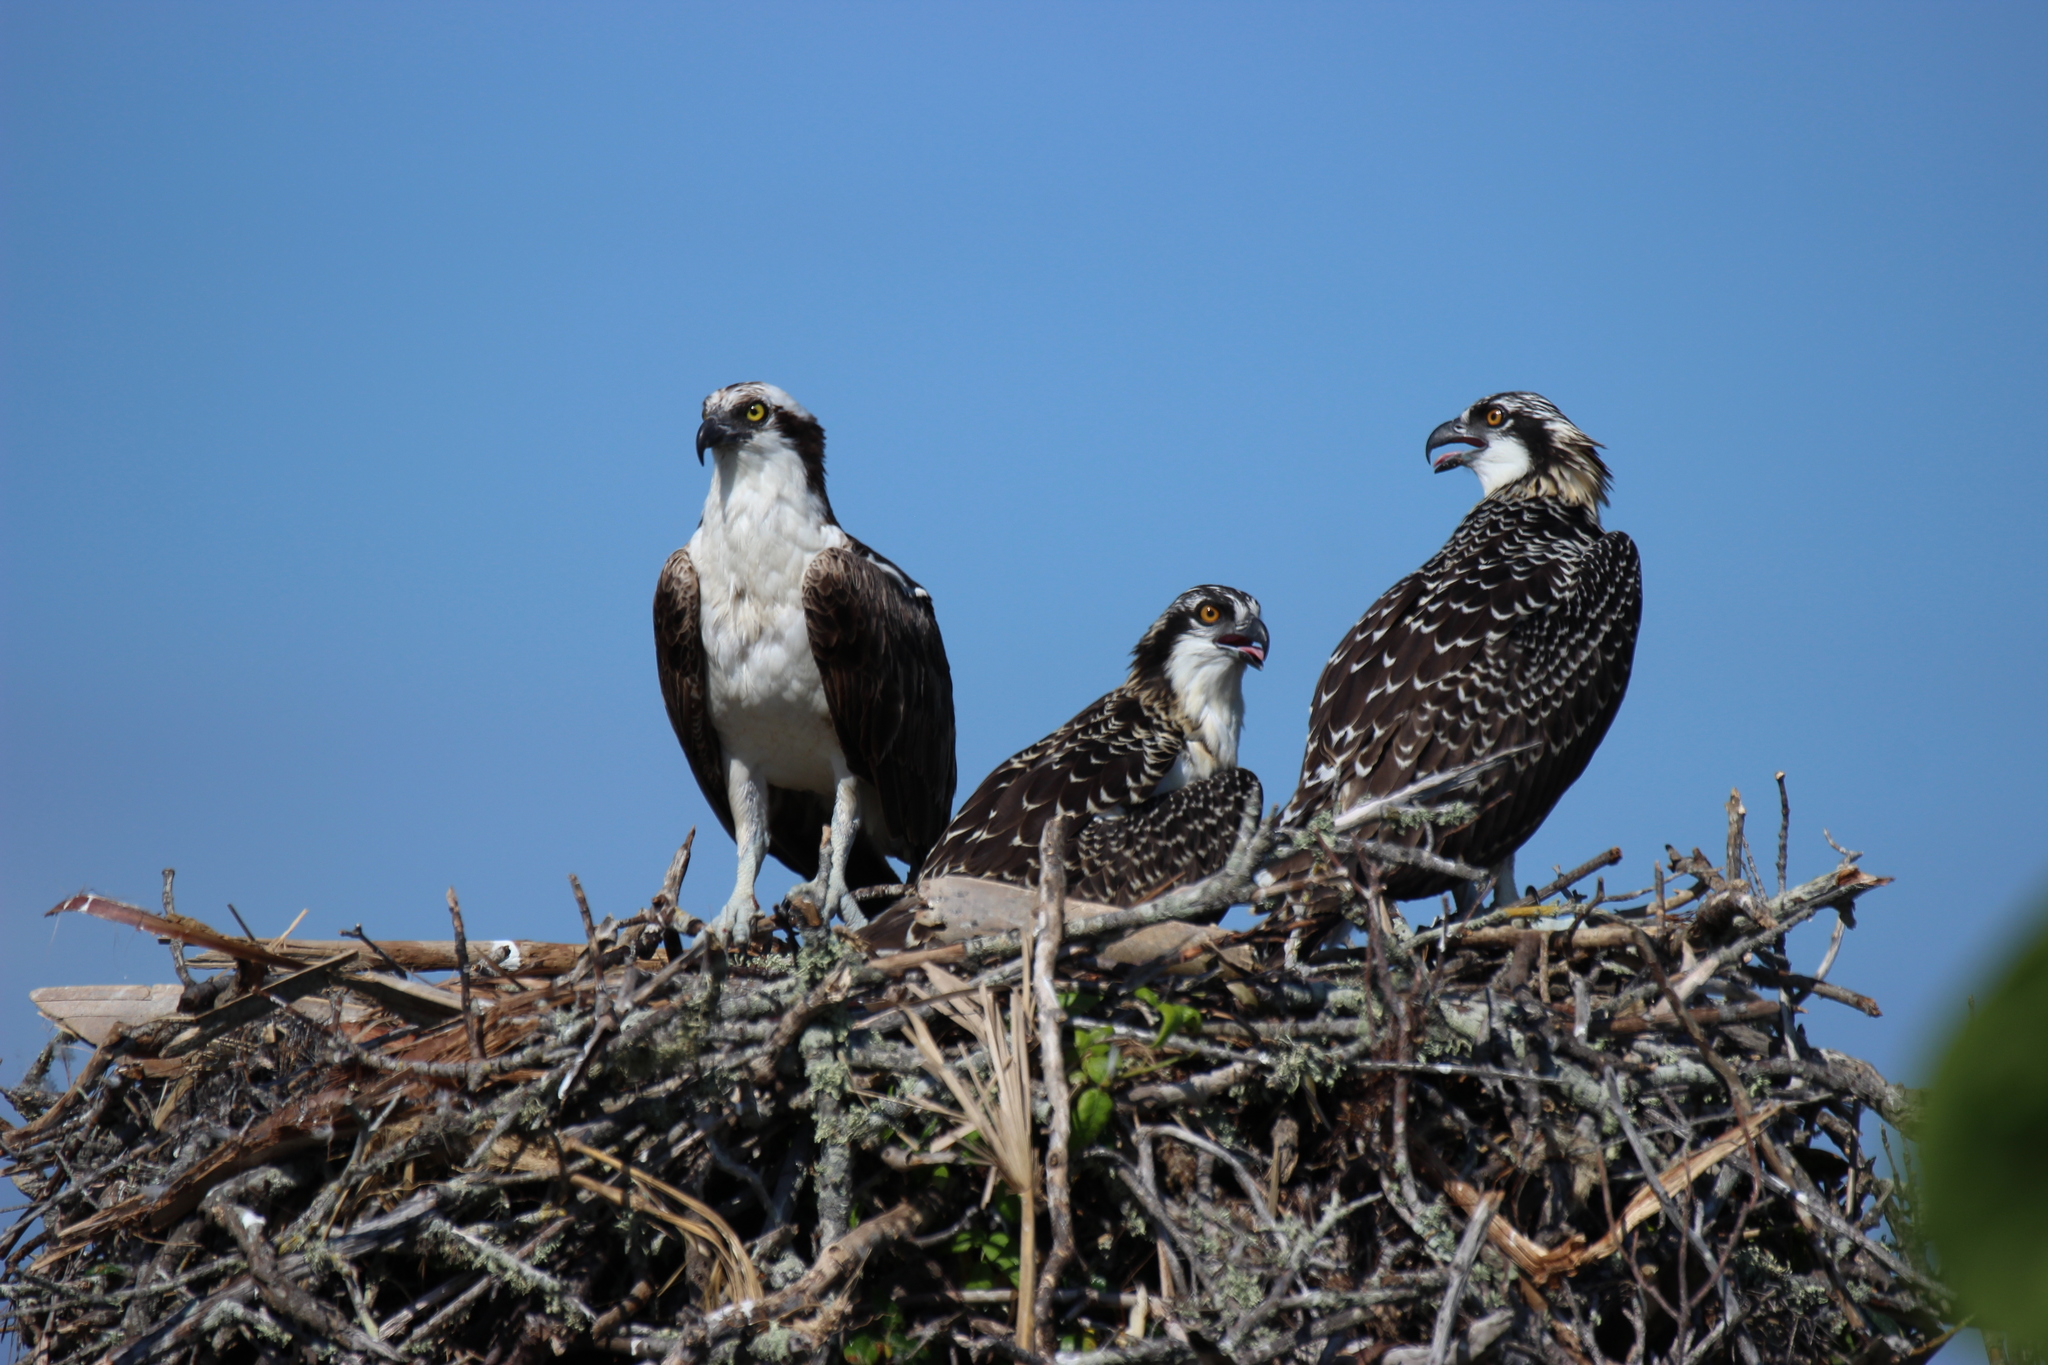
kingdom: Animalia
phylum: Chordata
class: Aves
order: Accipitriformes
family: Pandionidae
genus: Pandion
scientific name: Pandion haliaetus
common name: Osprey
